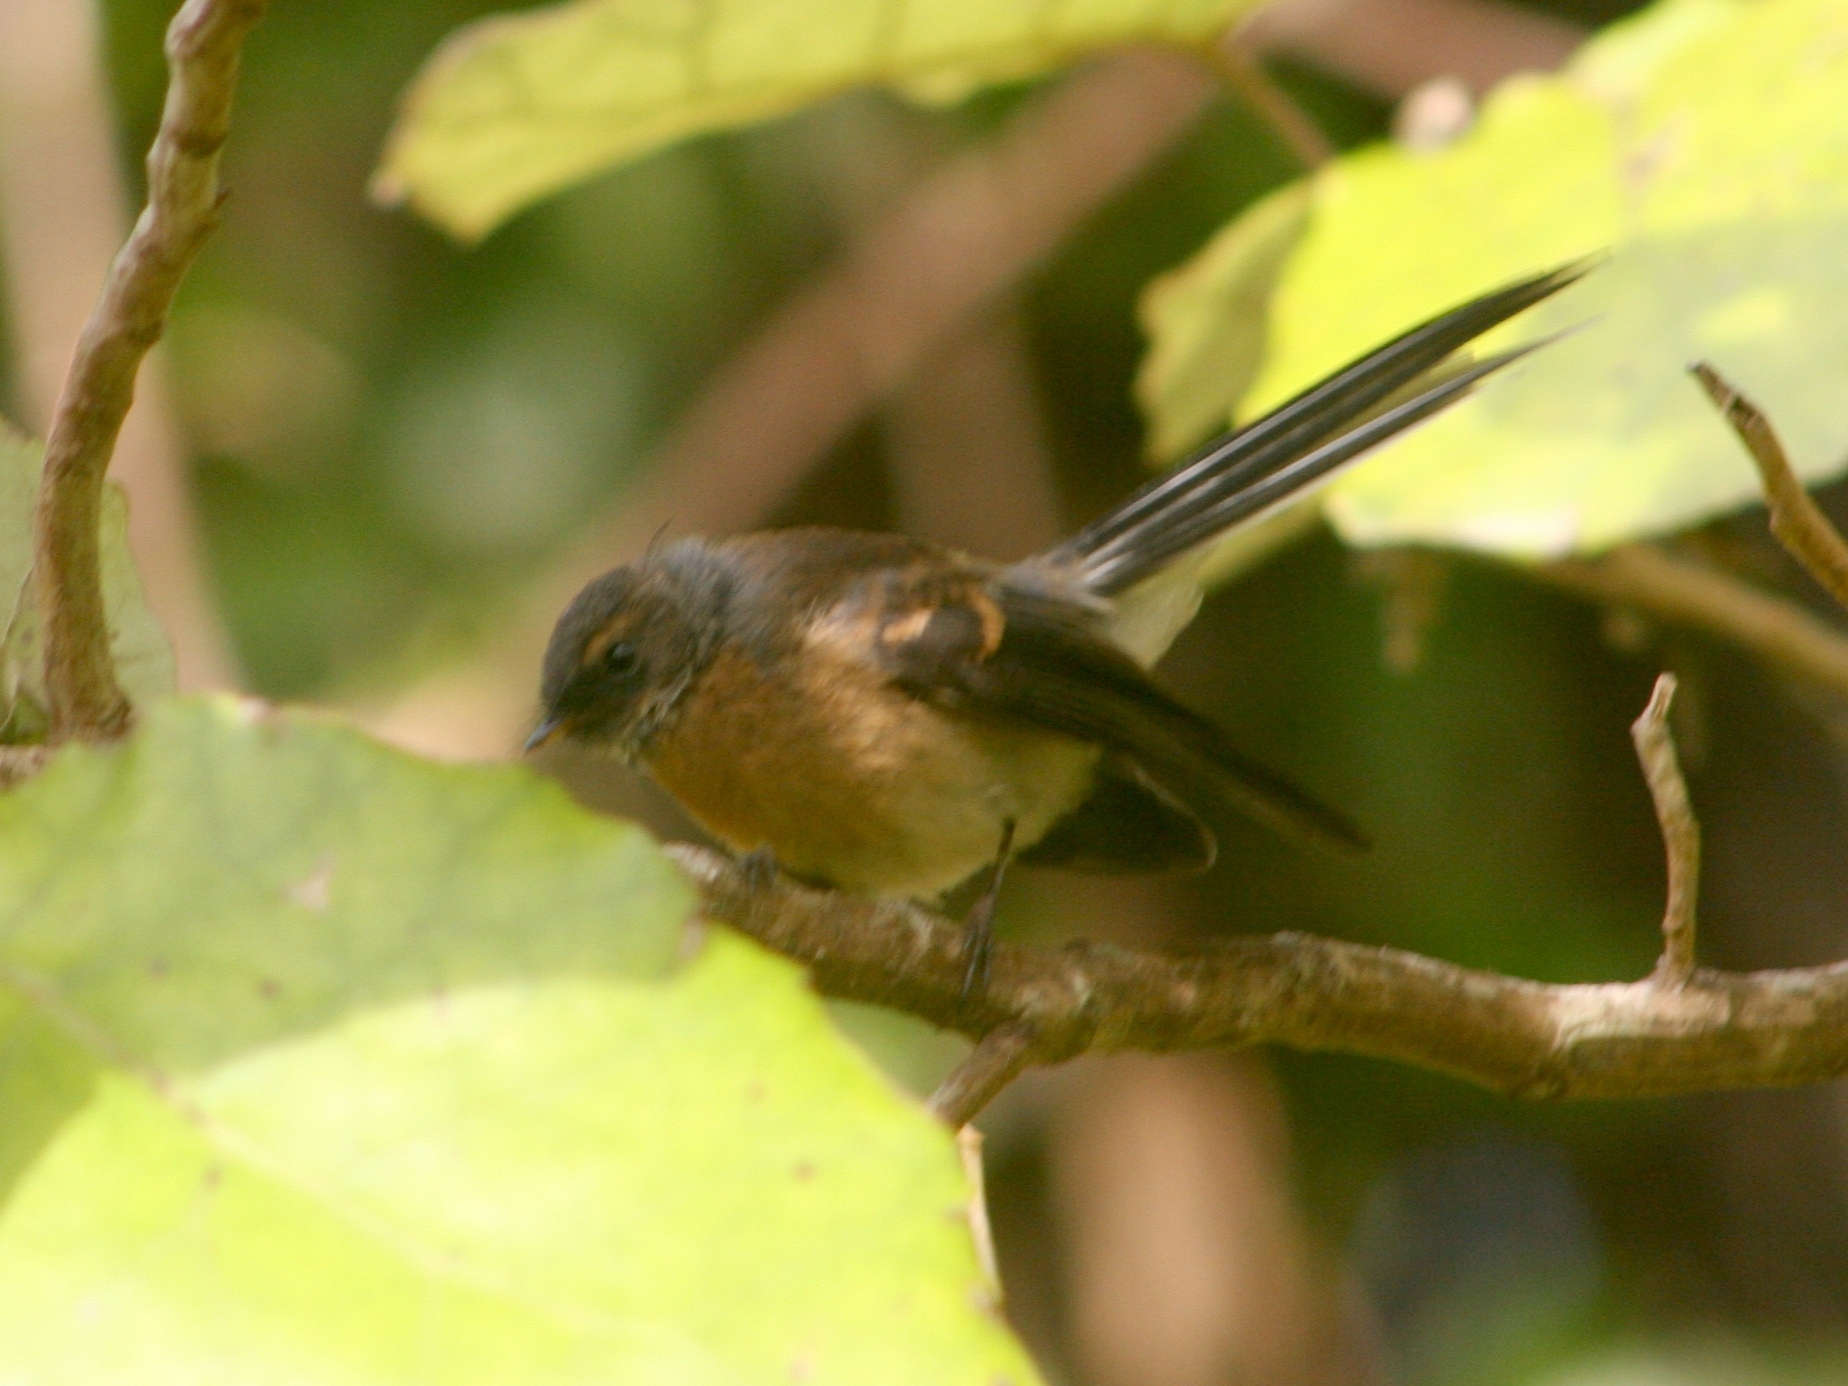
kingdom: Animalia
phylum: Chordata
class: Aves
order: Passeriformes
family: Rhipiduridae
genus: Rhipidura
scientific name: Rhipidura fuliginosa
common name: New zealand fantail
